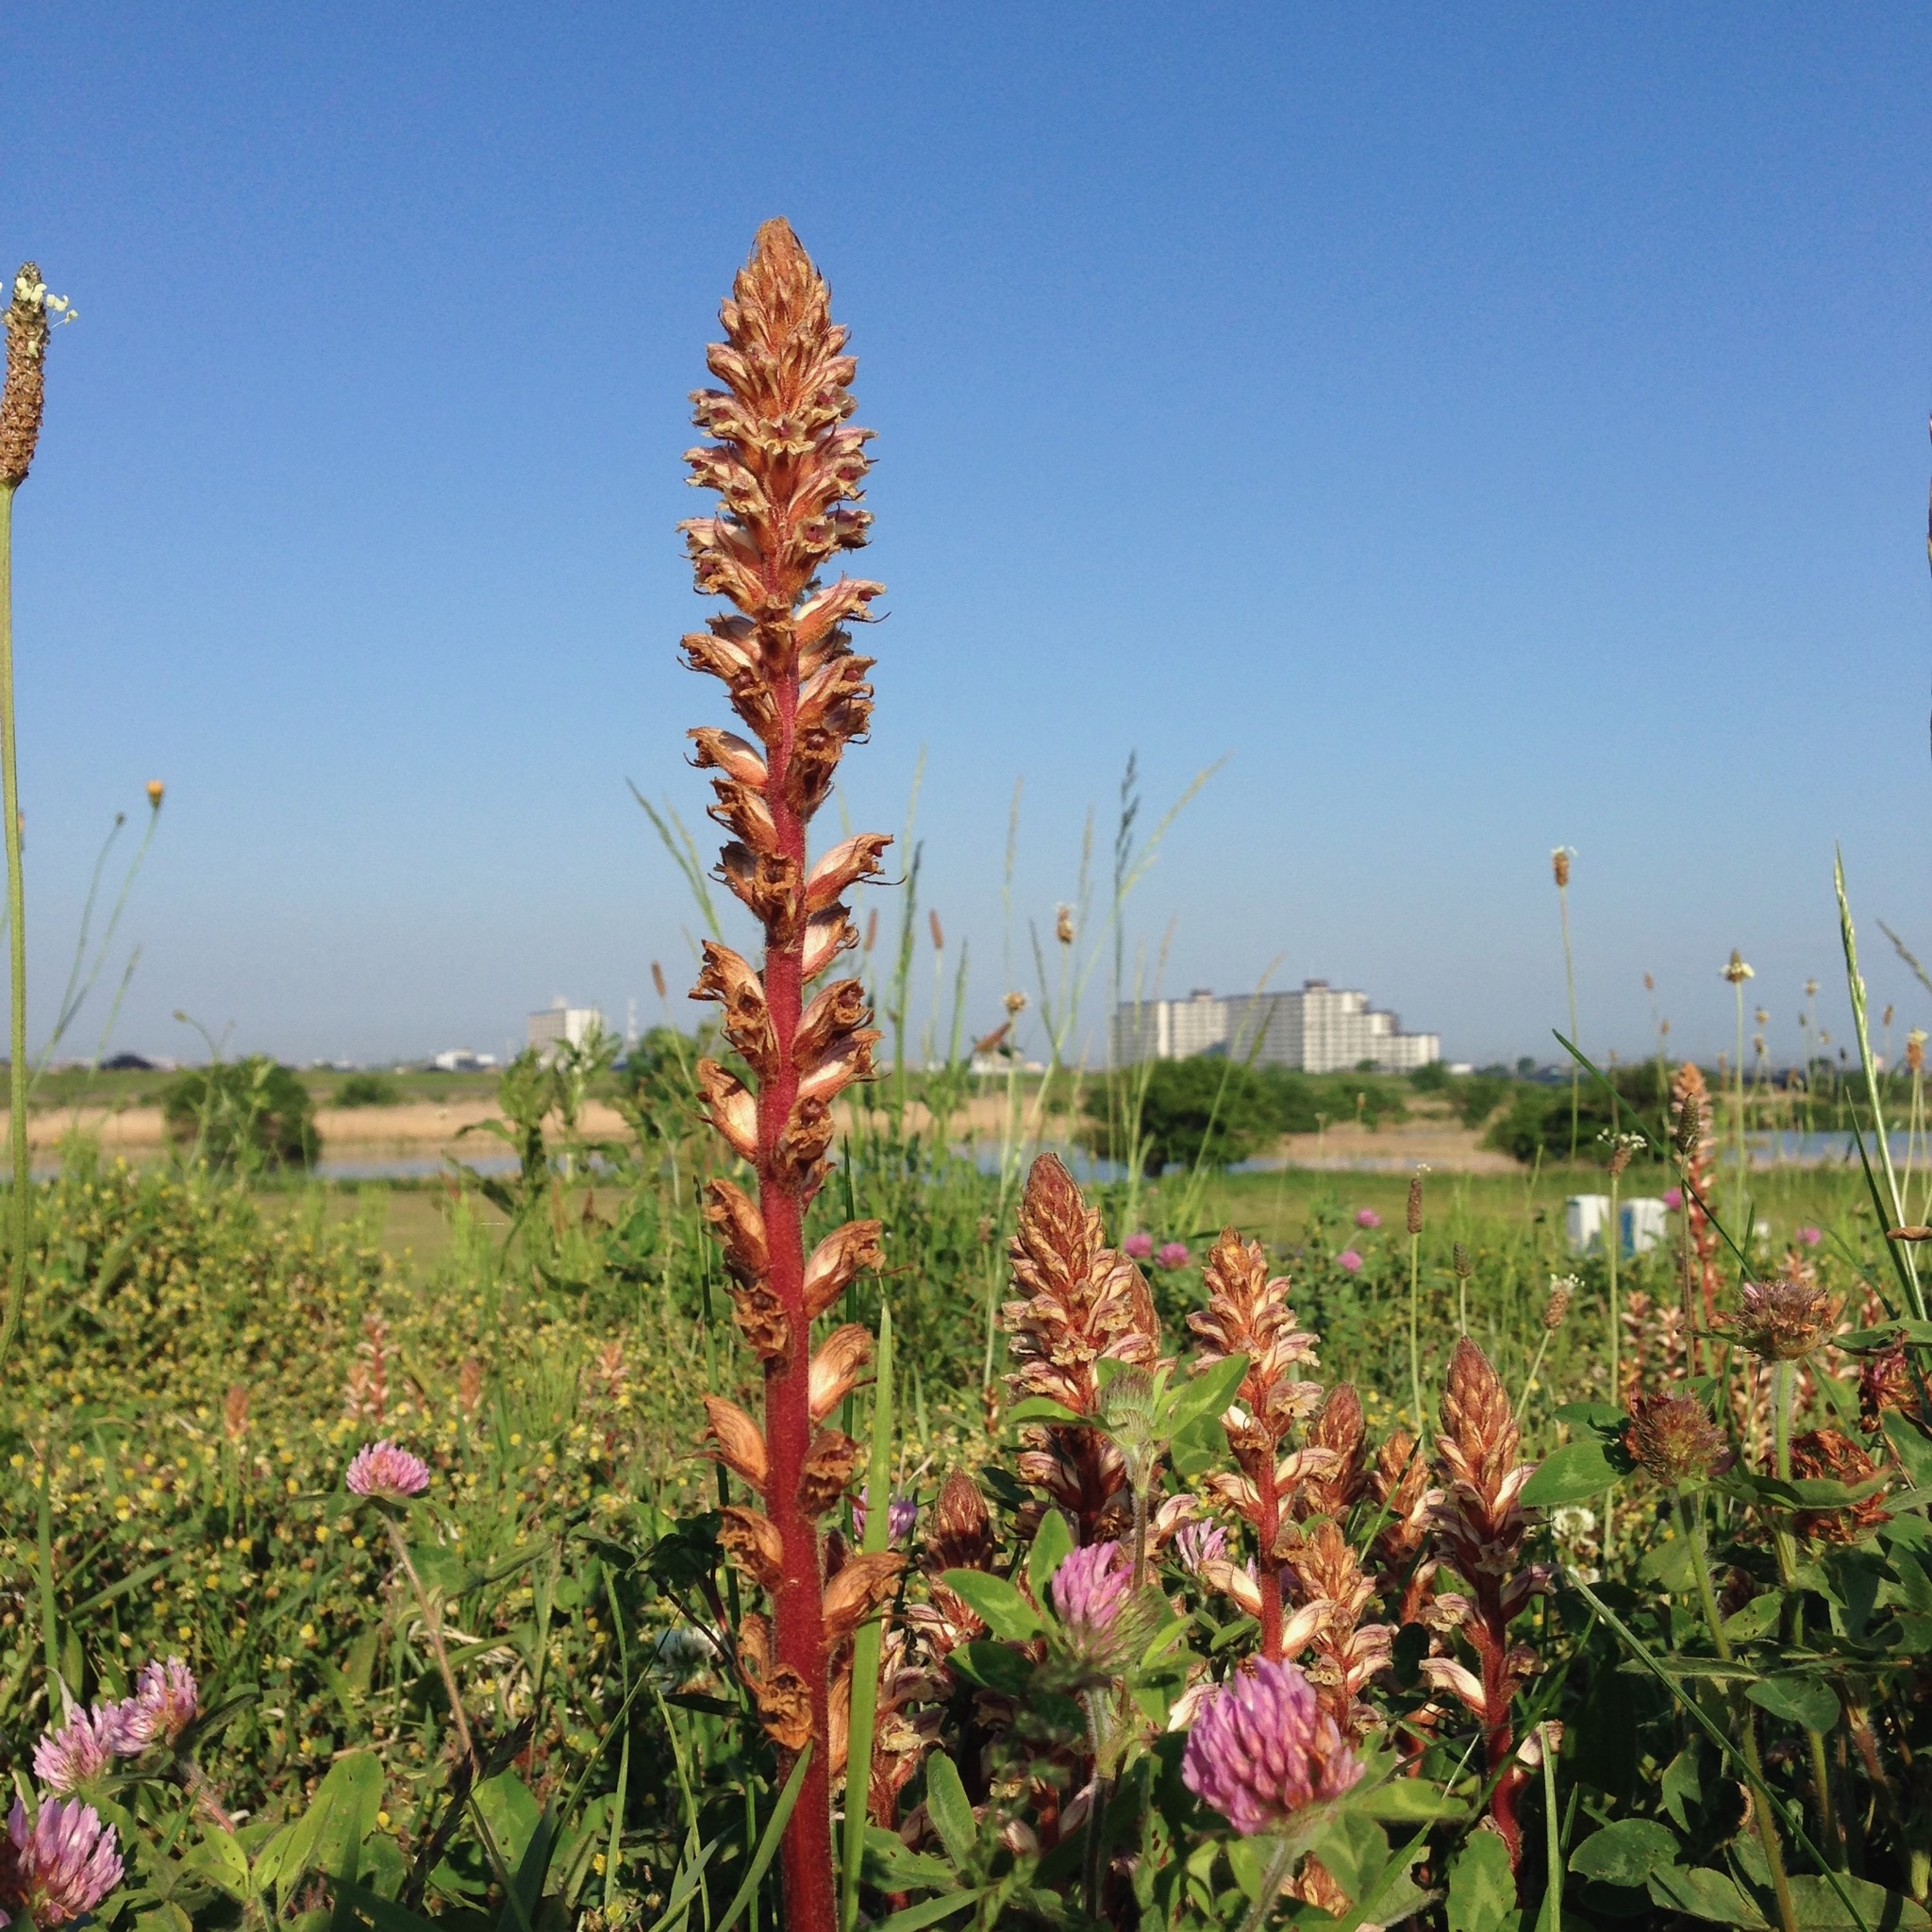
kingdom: Plantae
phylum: Tracheophyta
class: Magnoliopsida
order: Lamiales
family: Orobanchaceae
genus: Orobanche
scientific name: Orobanche minor
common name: Common broomrape
